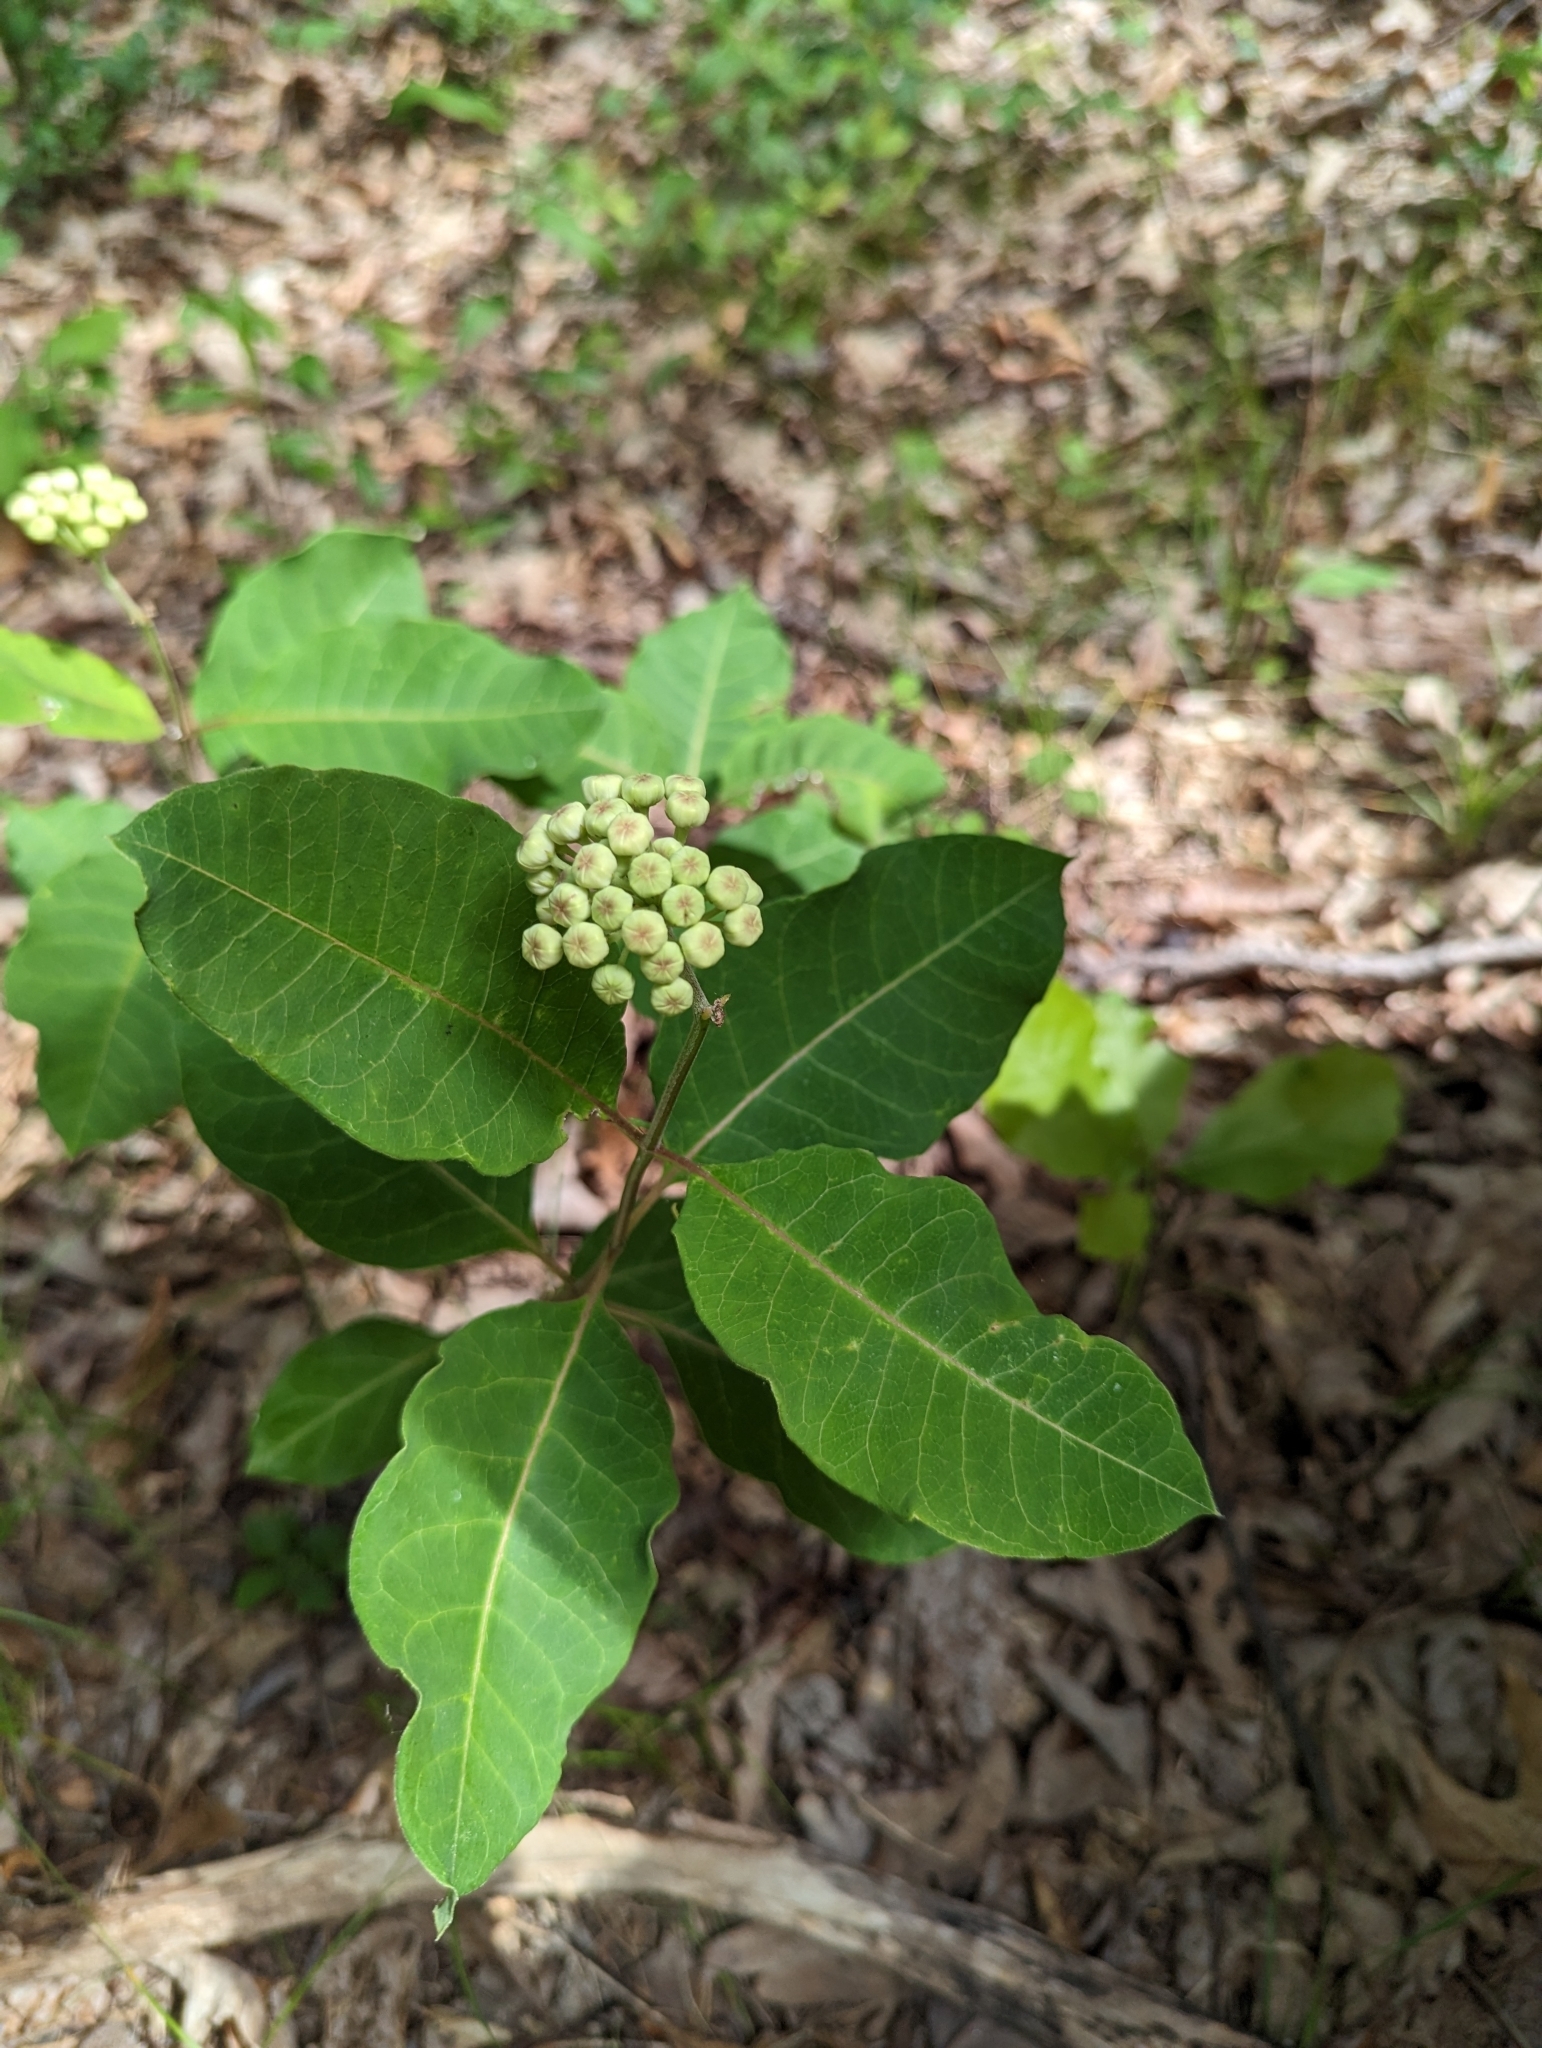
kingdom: Plantae
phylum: Tracheophyta
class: Magnoliopsida
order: Gentianales
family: Apocynaceae
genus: Asclepias
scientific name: Asclepias variegata
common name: Variegated milkweed
